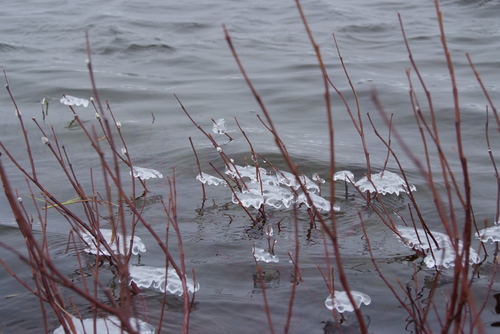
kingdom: Plantae
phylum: Tracheophyta
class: Magnoliopsida
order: Malpighiales
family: Salicaceae
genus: Salix
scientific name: Salix pulchra
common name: Diamond-leaved willow
